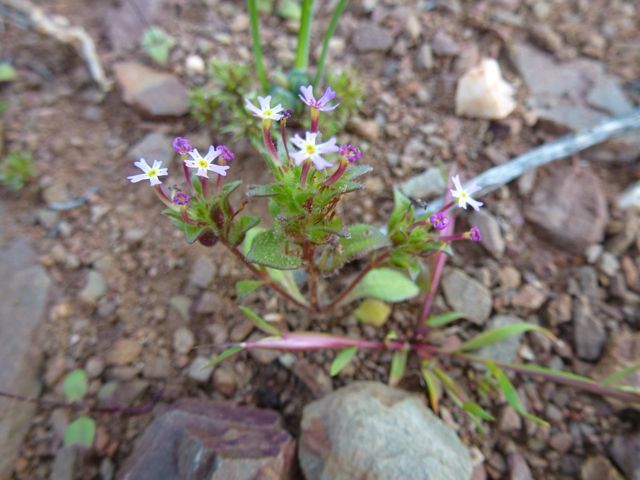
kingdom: Plantae
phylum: Tracheophyta
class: Magnoliopsida
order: Lamiales
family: Scrophulariaceae
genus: Zaluzianskya
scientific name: Zaluzianskya minima
